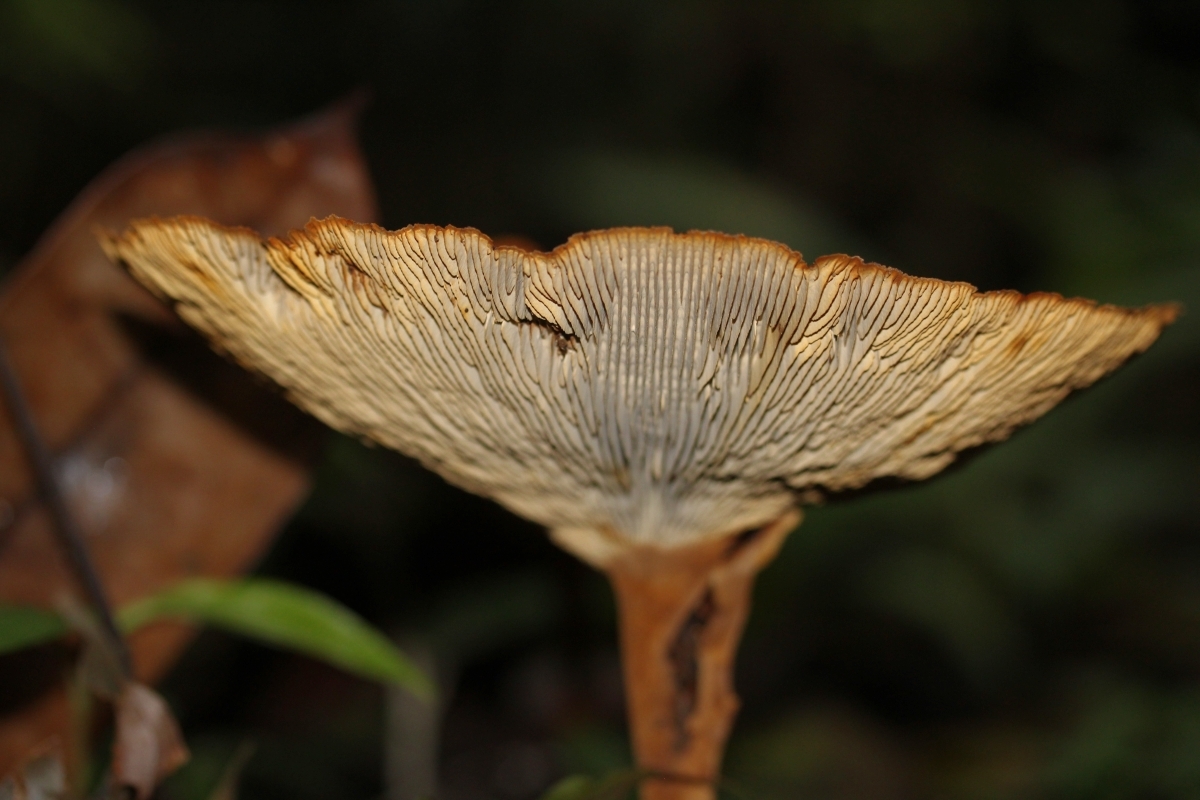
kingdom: Fungi
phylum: Basidiomycota
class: Agaricomycetes
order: Gloeophyllales
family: Gloeophyllaceae
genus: Stiptophyllum
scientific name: Stiptophyllum erubescens
